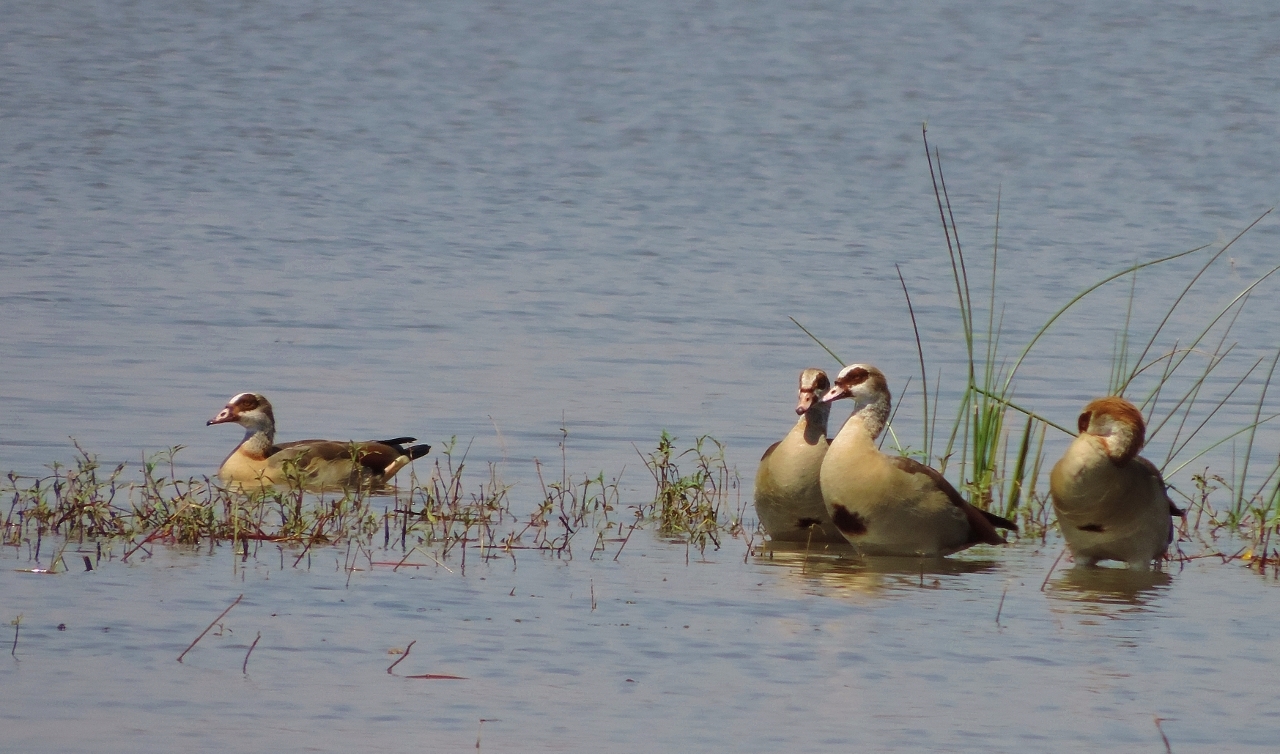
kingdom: Animalia
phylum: Chordata
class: Aves
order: Anseriformes
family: Anatidae
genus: Alopochen
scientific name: Alopochen aegyptiaca
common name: Egyptian goose
